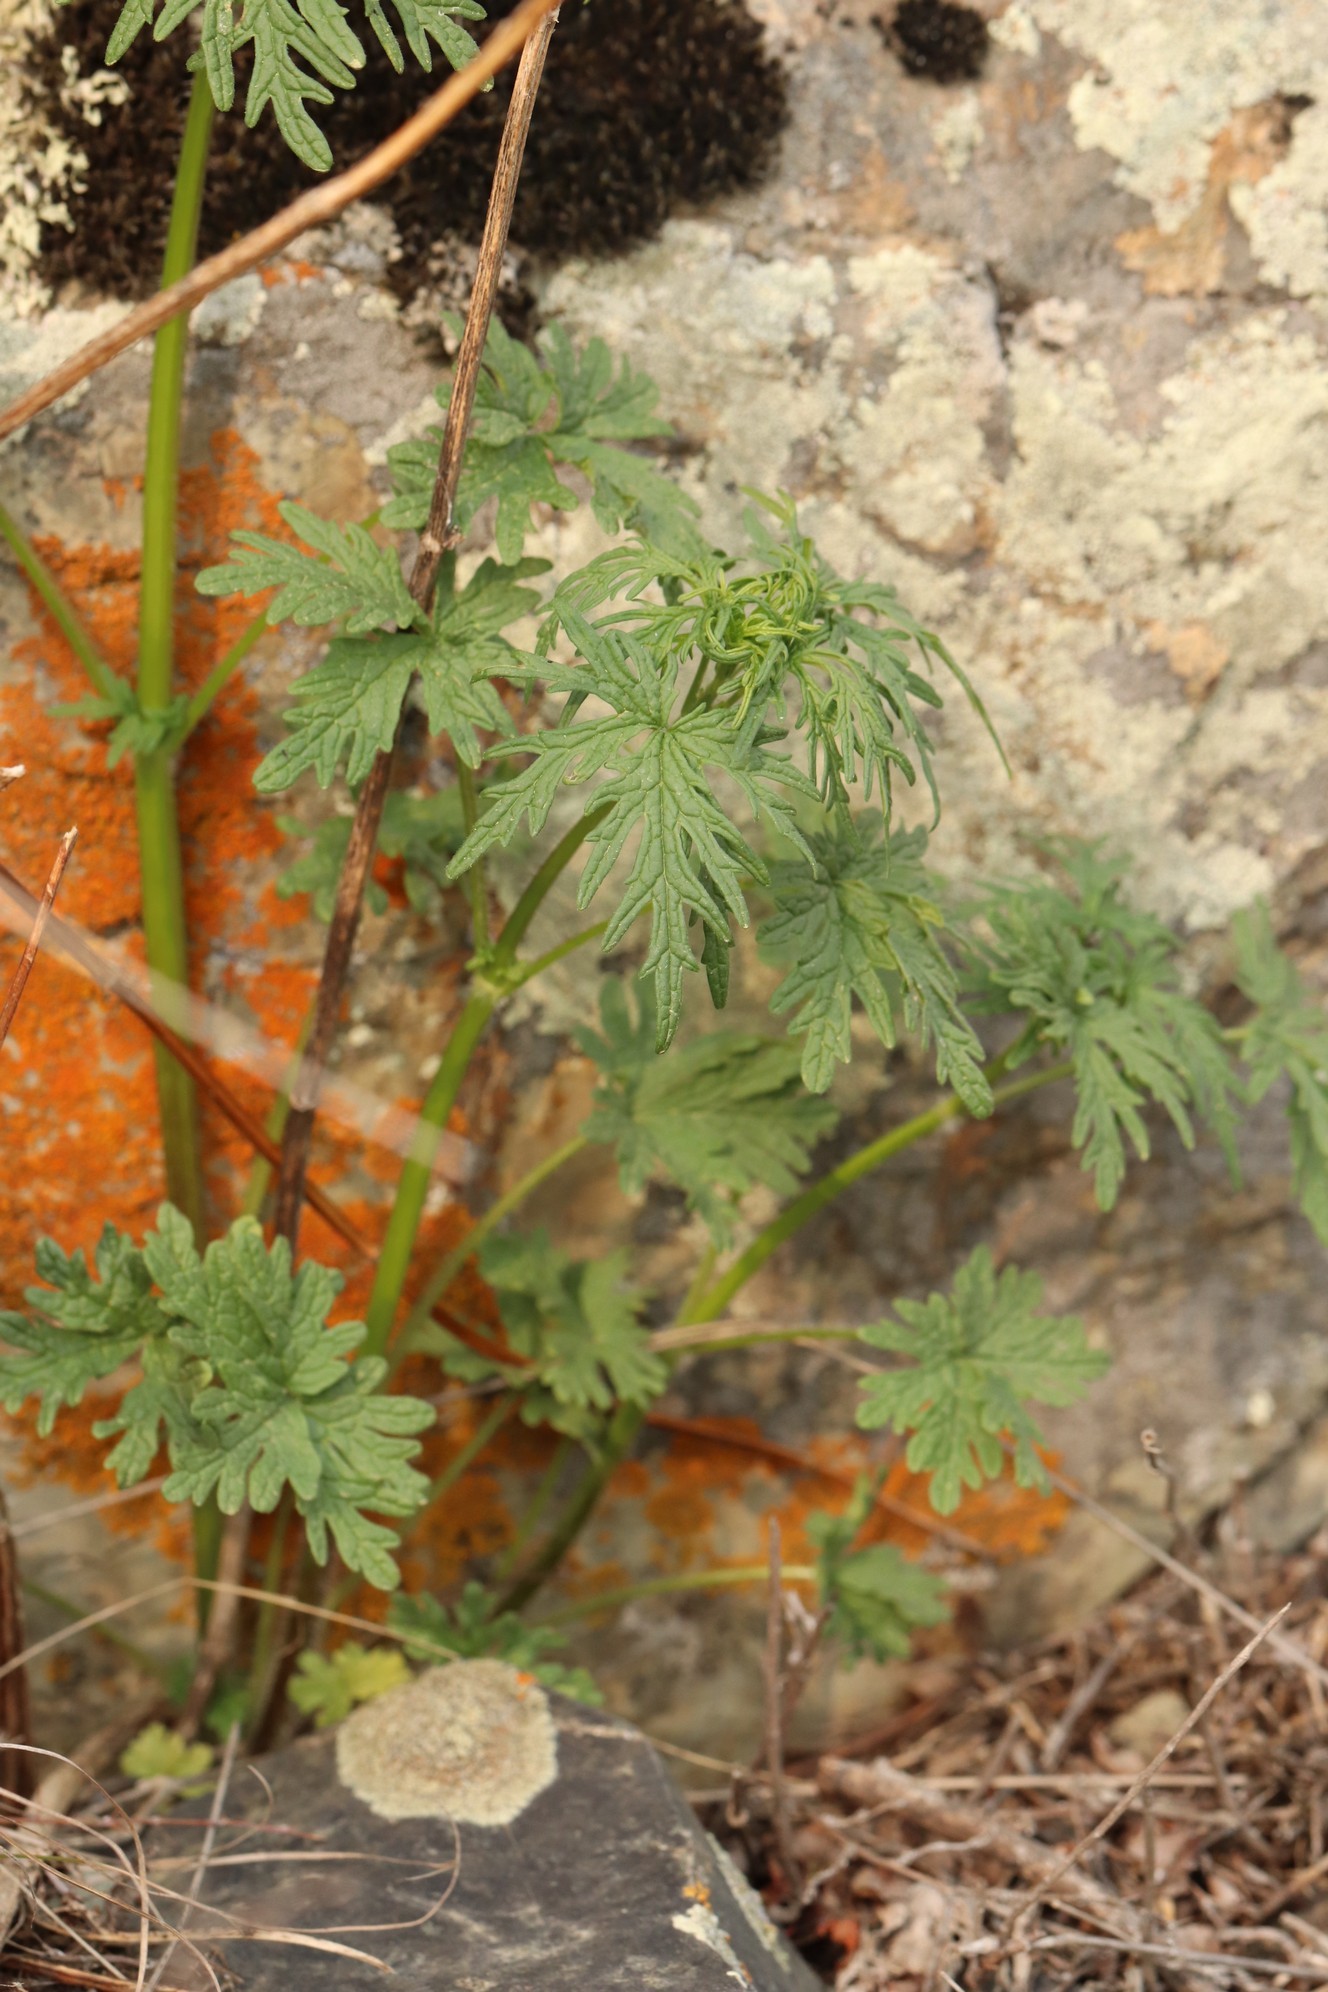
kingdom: Plantae
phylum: Tracheophyta
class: Magnoliopsida
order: Lamiales
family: Lamiaceae
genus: Leonurus
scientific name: Leonurus tataricus
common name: Chinese motherwort
